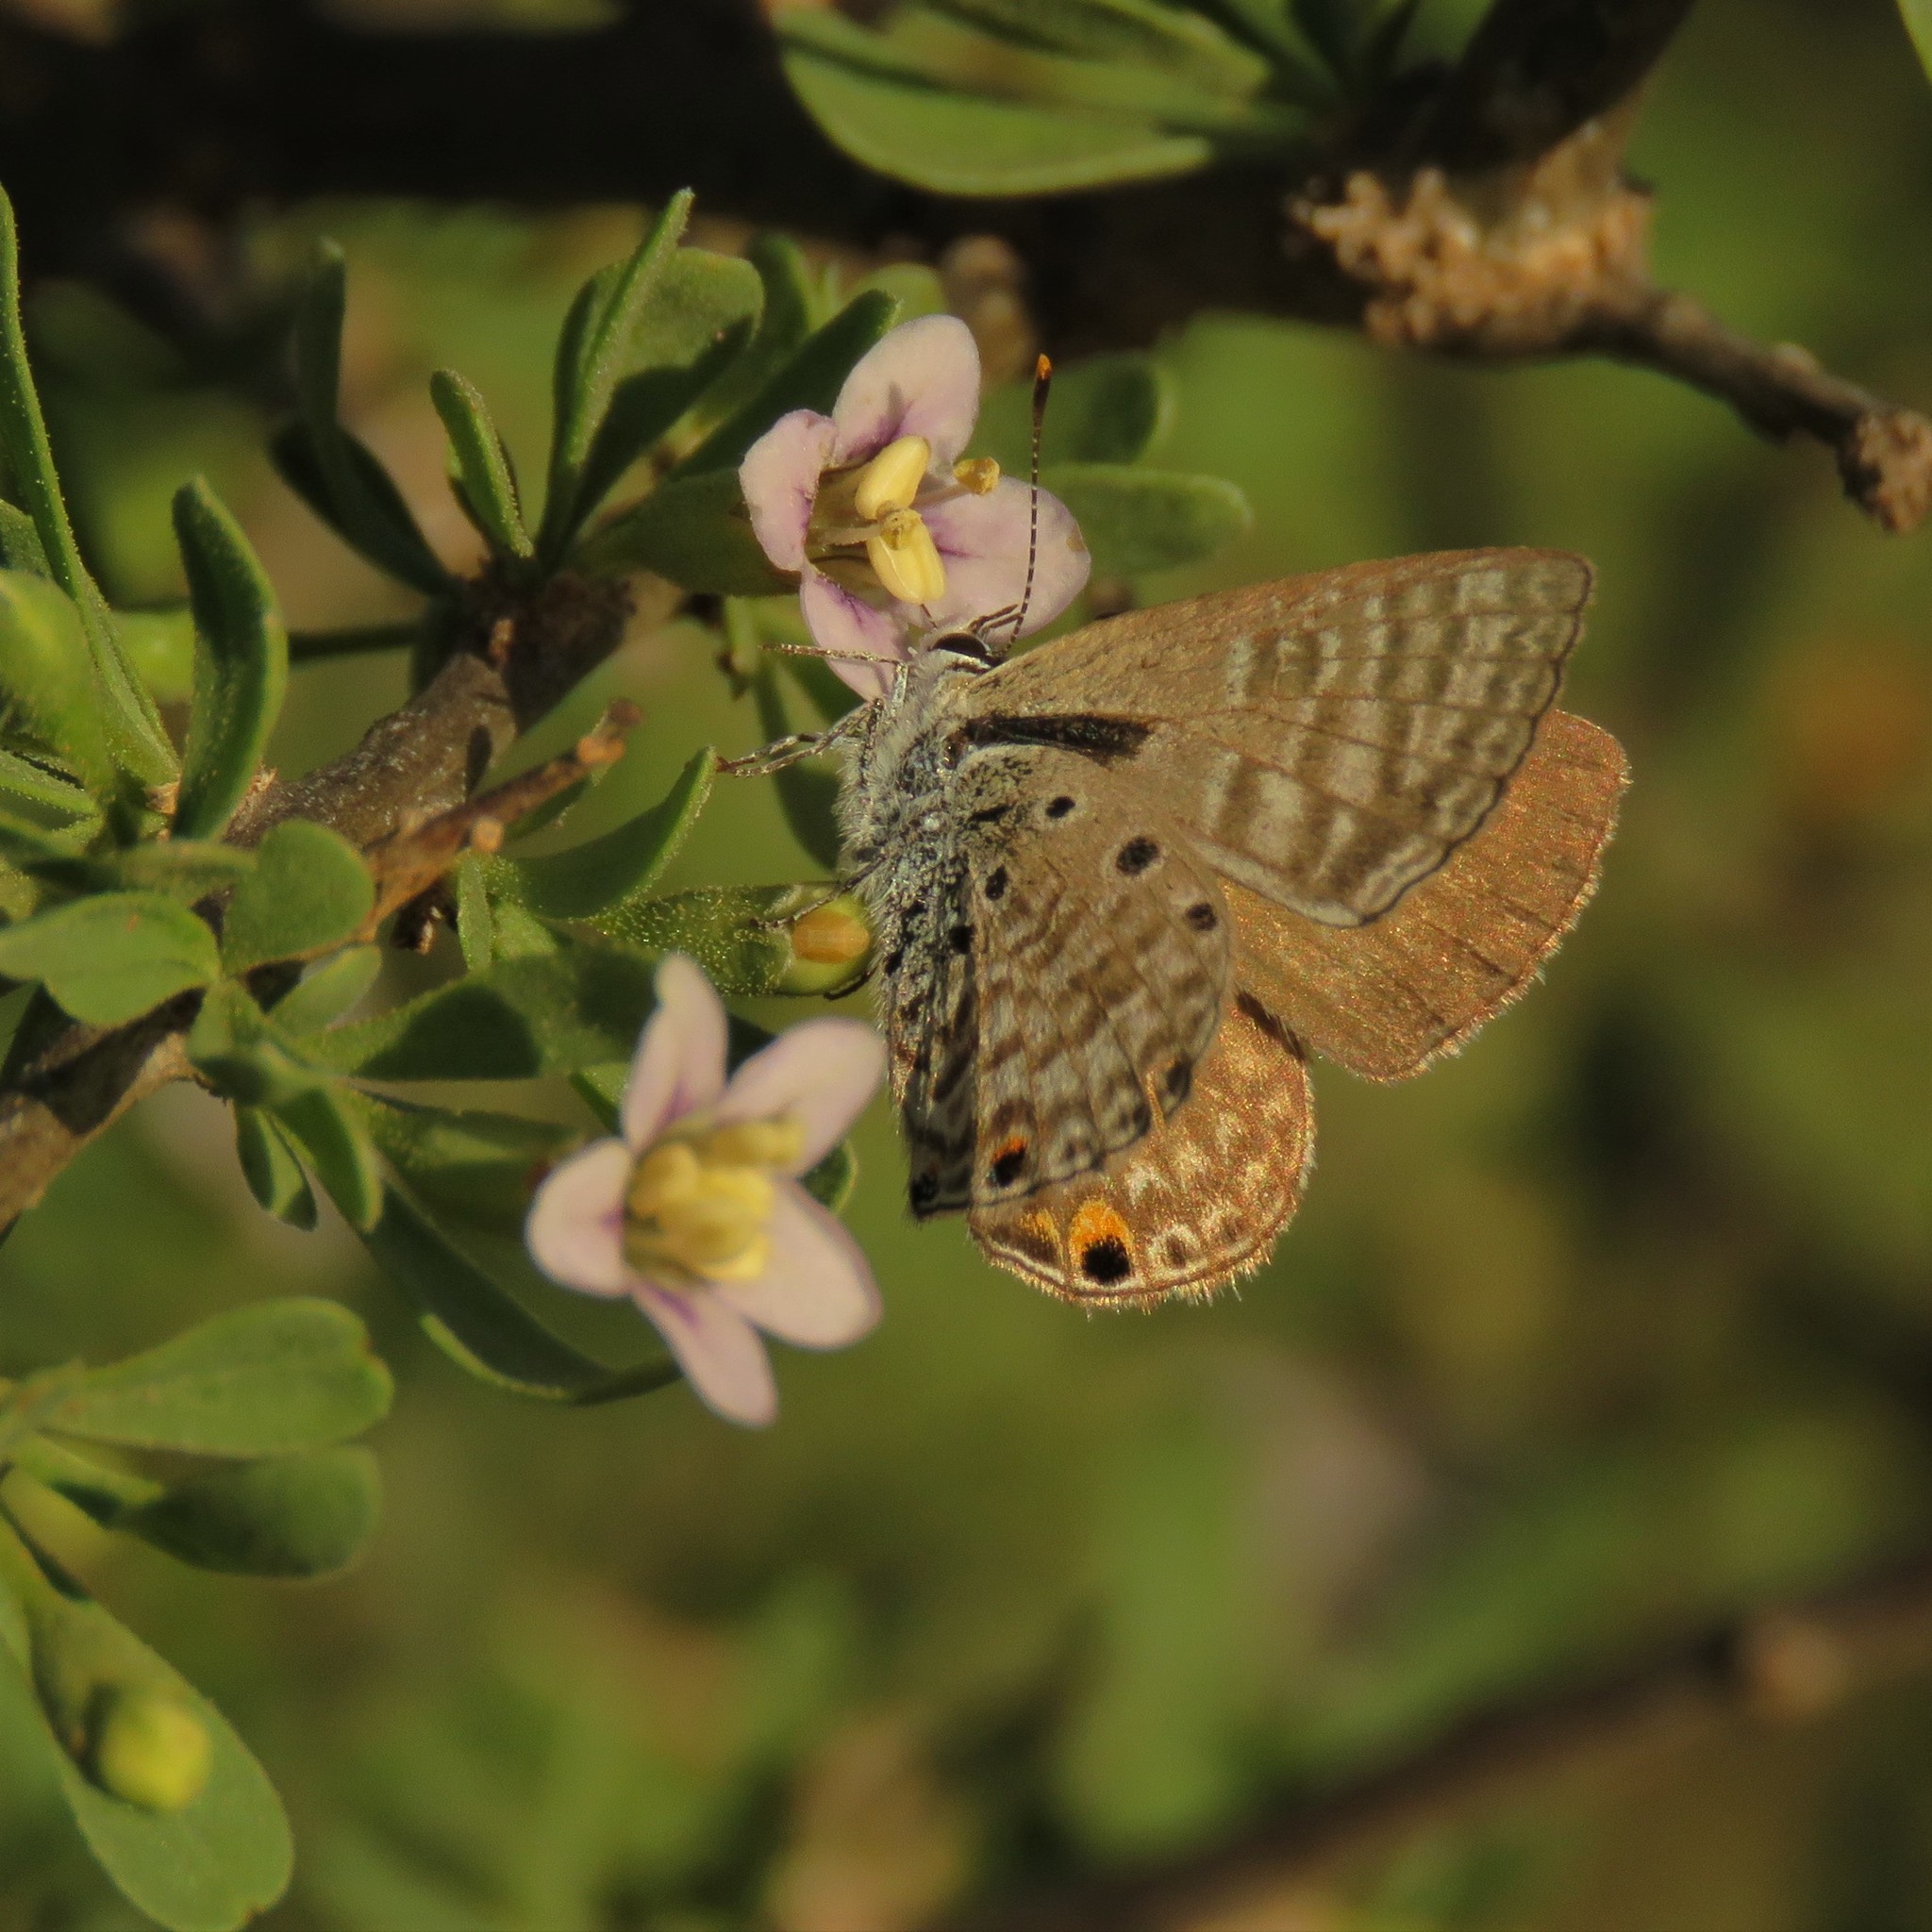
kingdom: Animalia
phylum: Arthropoda
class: Insecta
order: Lepidoptera
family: Lycaenidae
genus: Anthene
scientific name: Anthene amarah
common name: Black-striped hairtail
